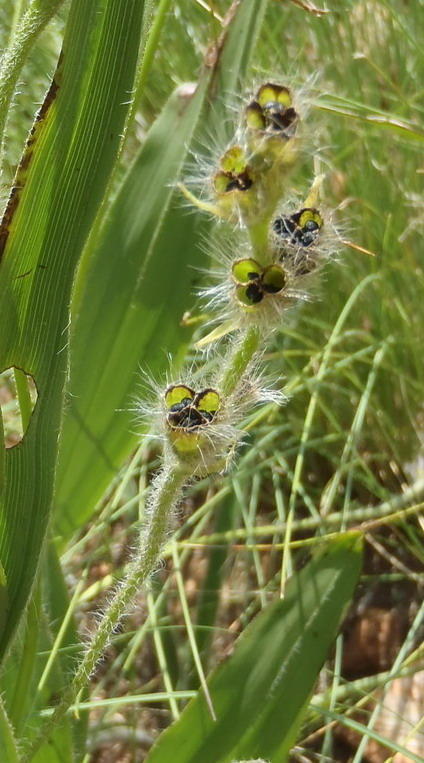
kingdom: Plantae
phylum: Tracheophyta
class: Liliopsida
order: Asparagales
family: Hypoxidaceae
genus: Hypoxis
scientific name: Hypoxis obtusa
